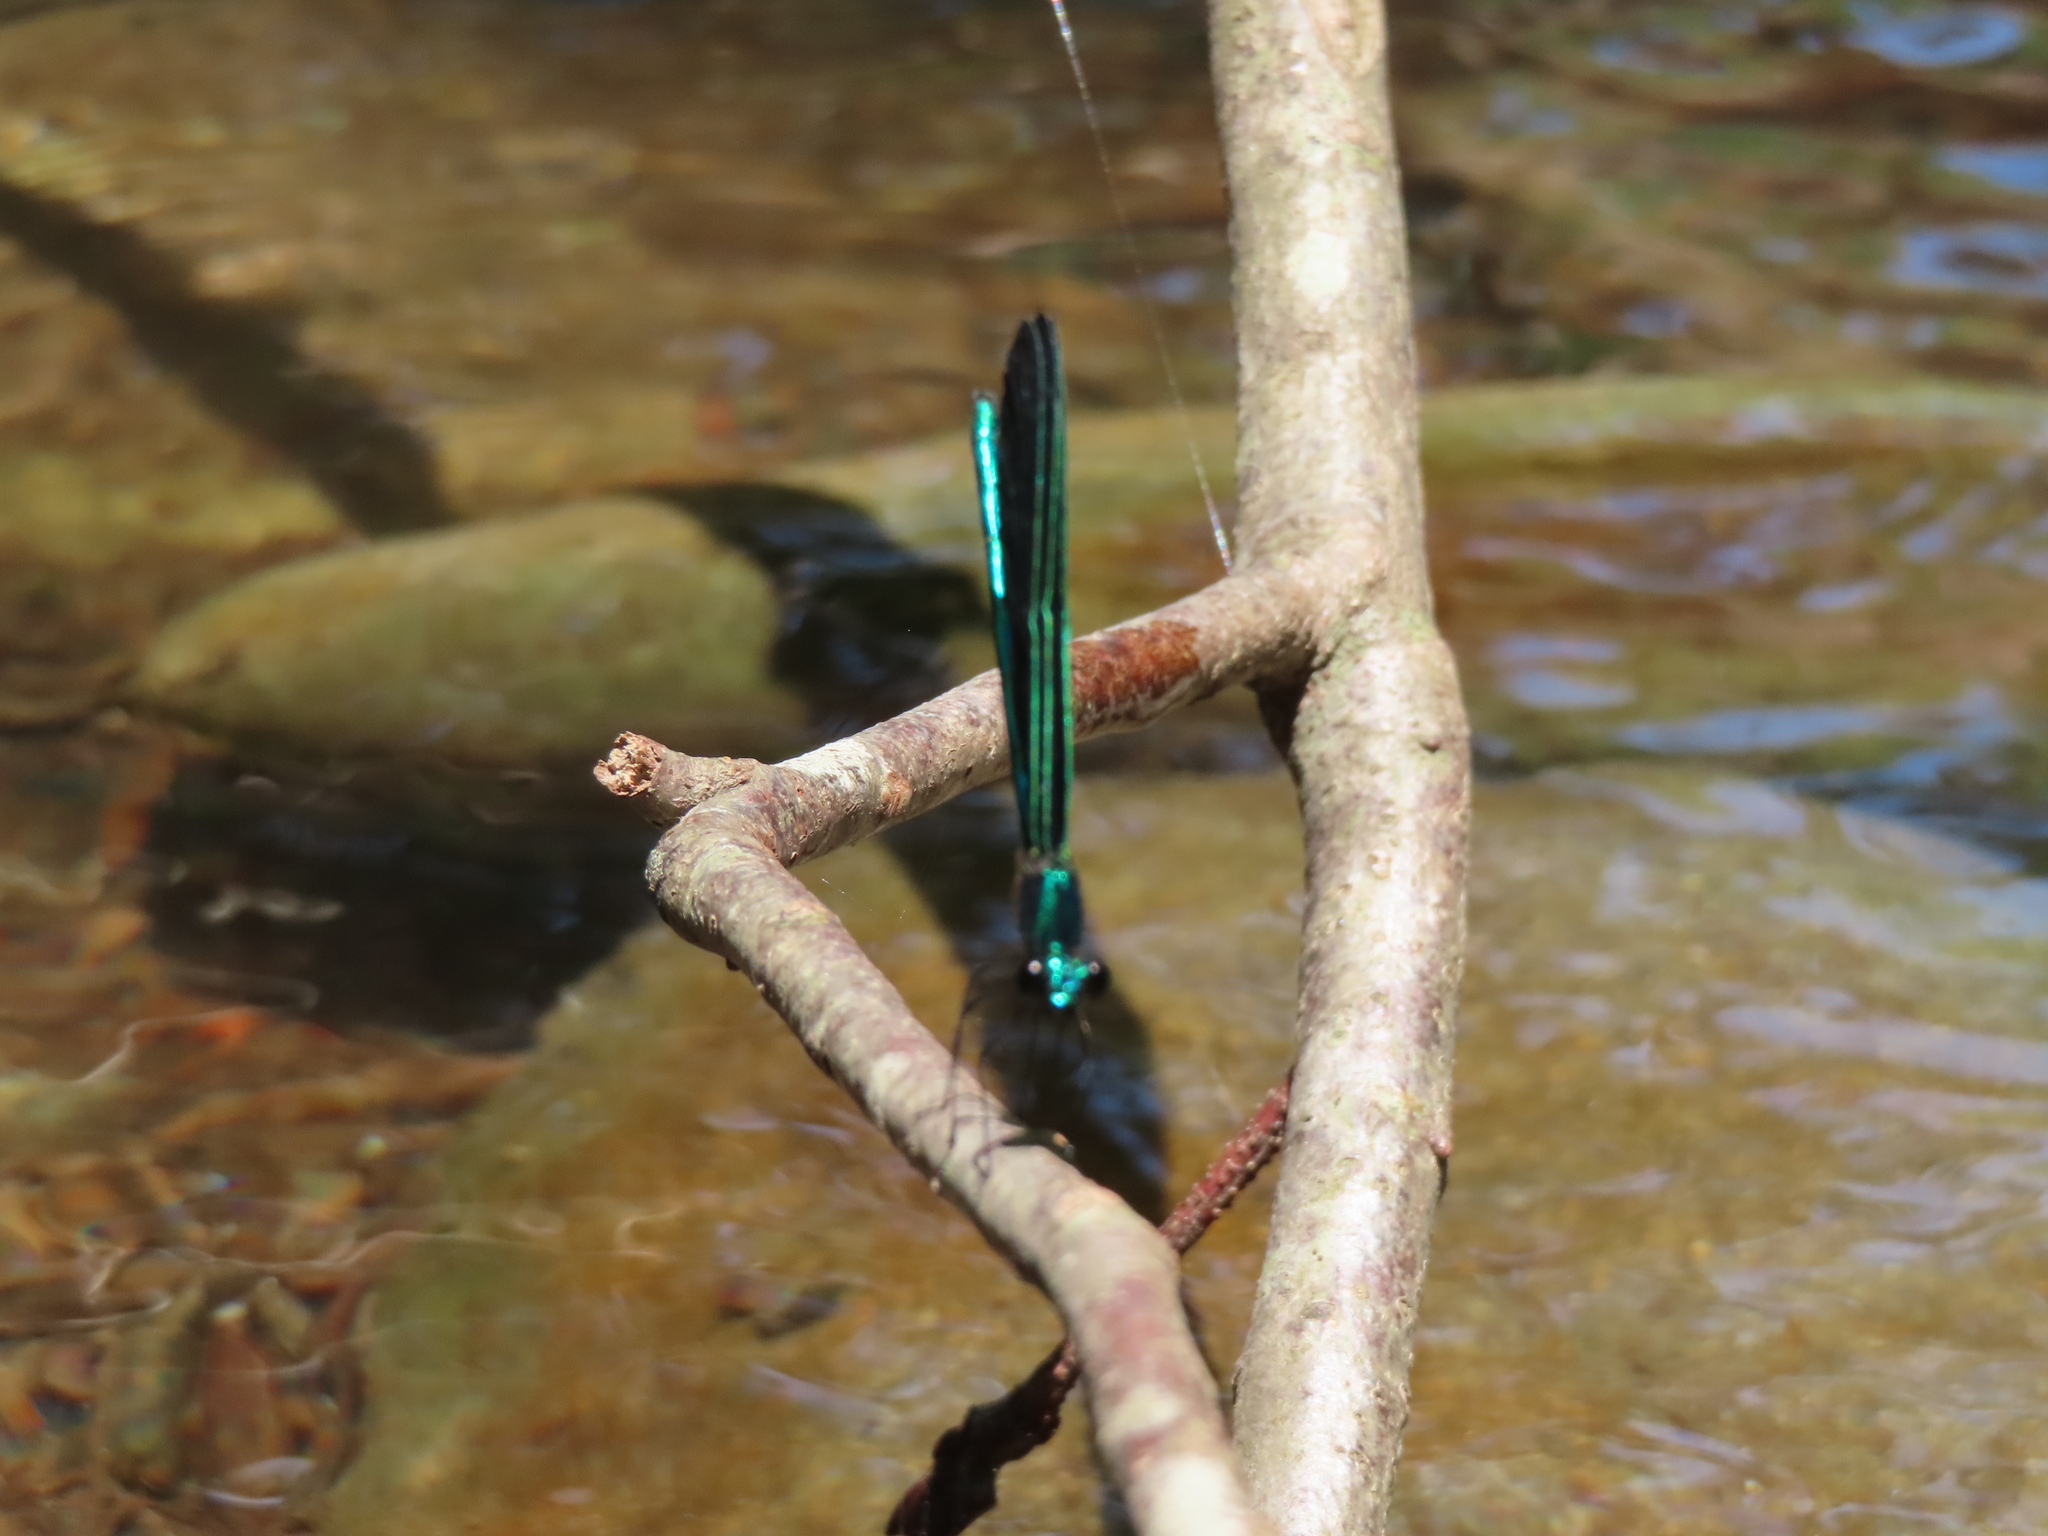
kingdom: Animalia
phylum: Arthropoda
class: Insecta
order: Odonata
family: Calopterygidae
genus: Calopteryx
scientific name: Calopteryx maculata
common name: Ebony jewelwing
